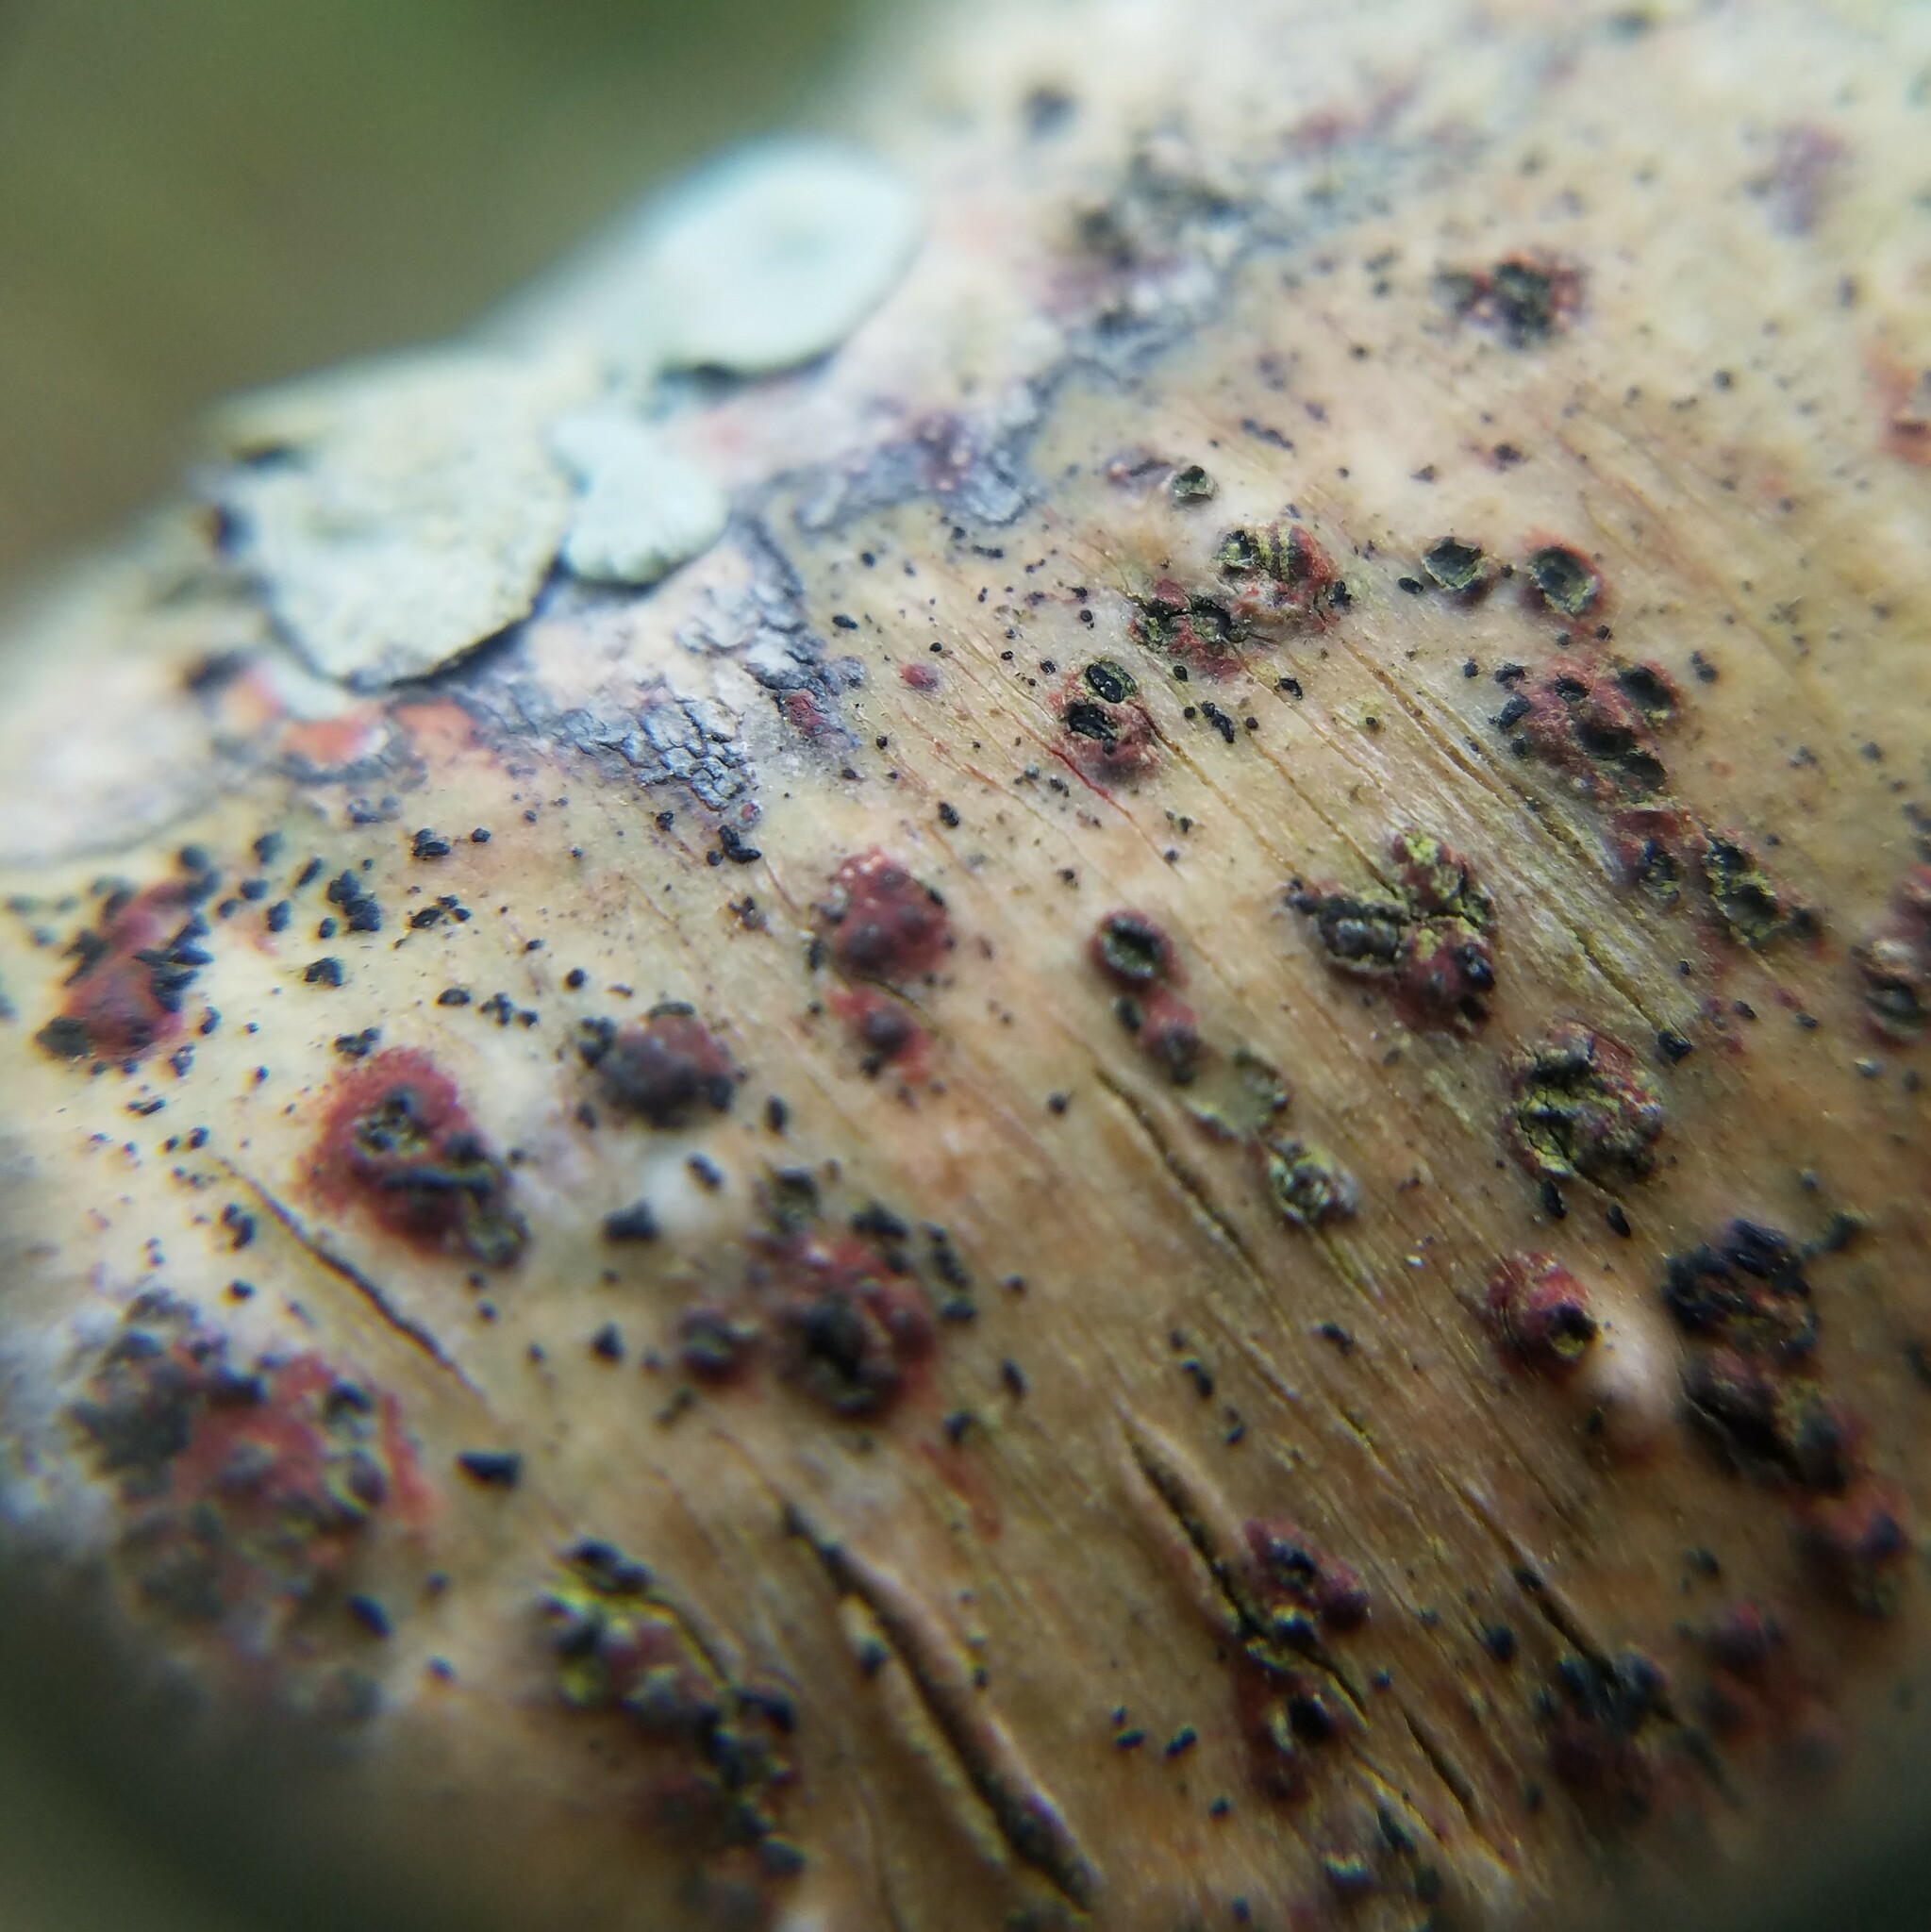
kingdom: Fungi
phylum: Ascomycota
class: Eurotiomycetes
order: Pyrenulales
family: Pyrenulaceae
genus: Pyrenula
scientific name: Pyrenula cruenta
